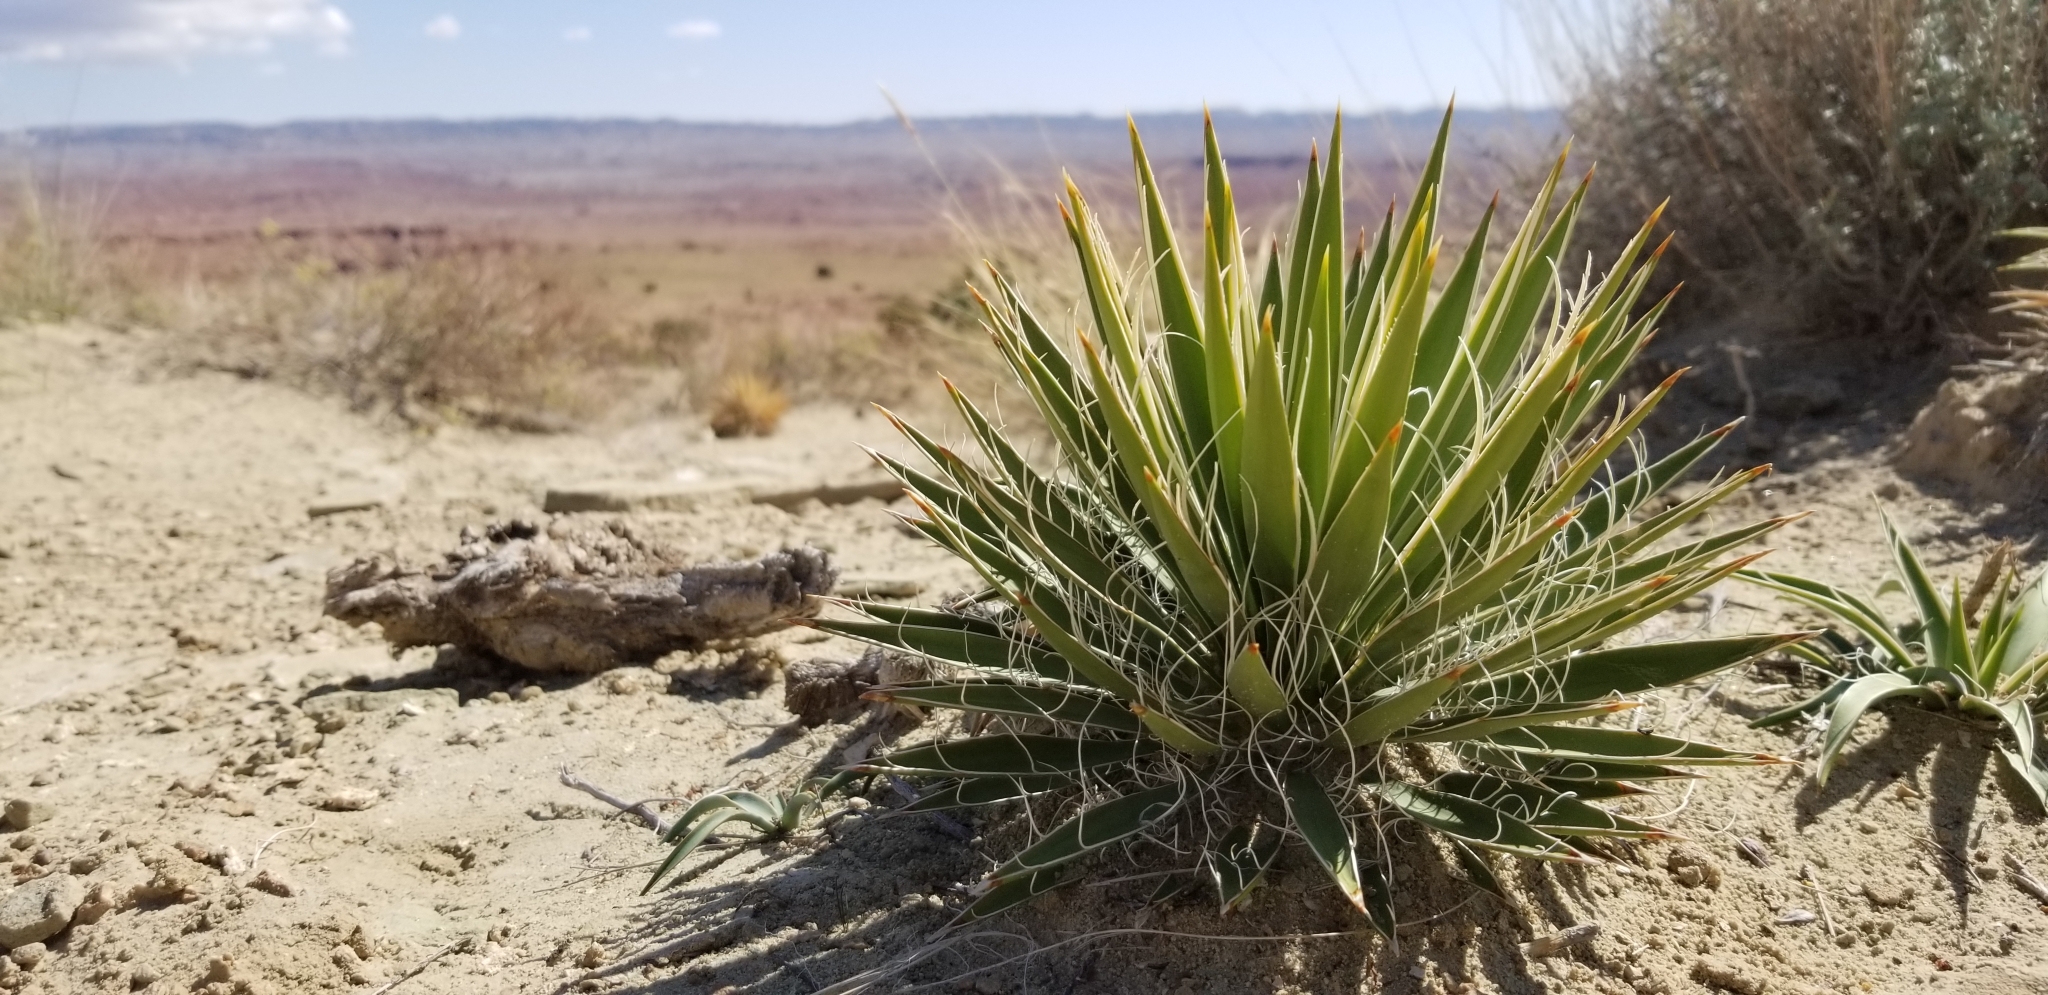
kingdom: Plantae
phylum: Tracheophyta
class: Liliopsida
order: Asparagales
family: Asparagaceae
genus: Yucca
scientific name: Yucca harrimaniae
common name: Harriman's yucca
